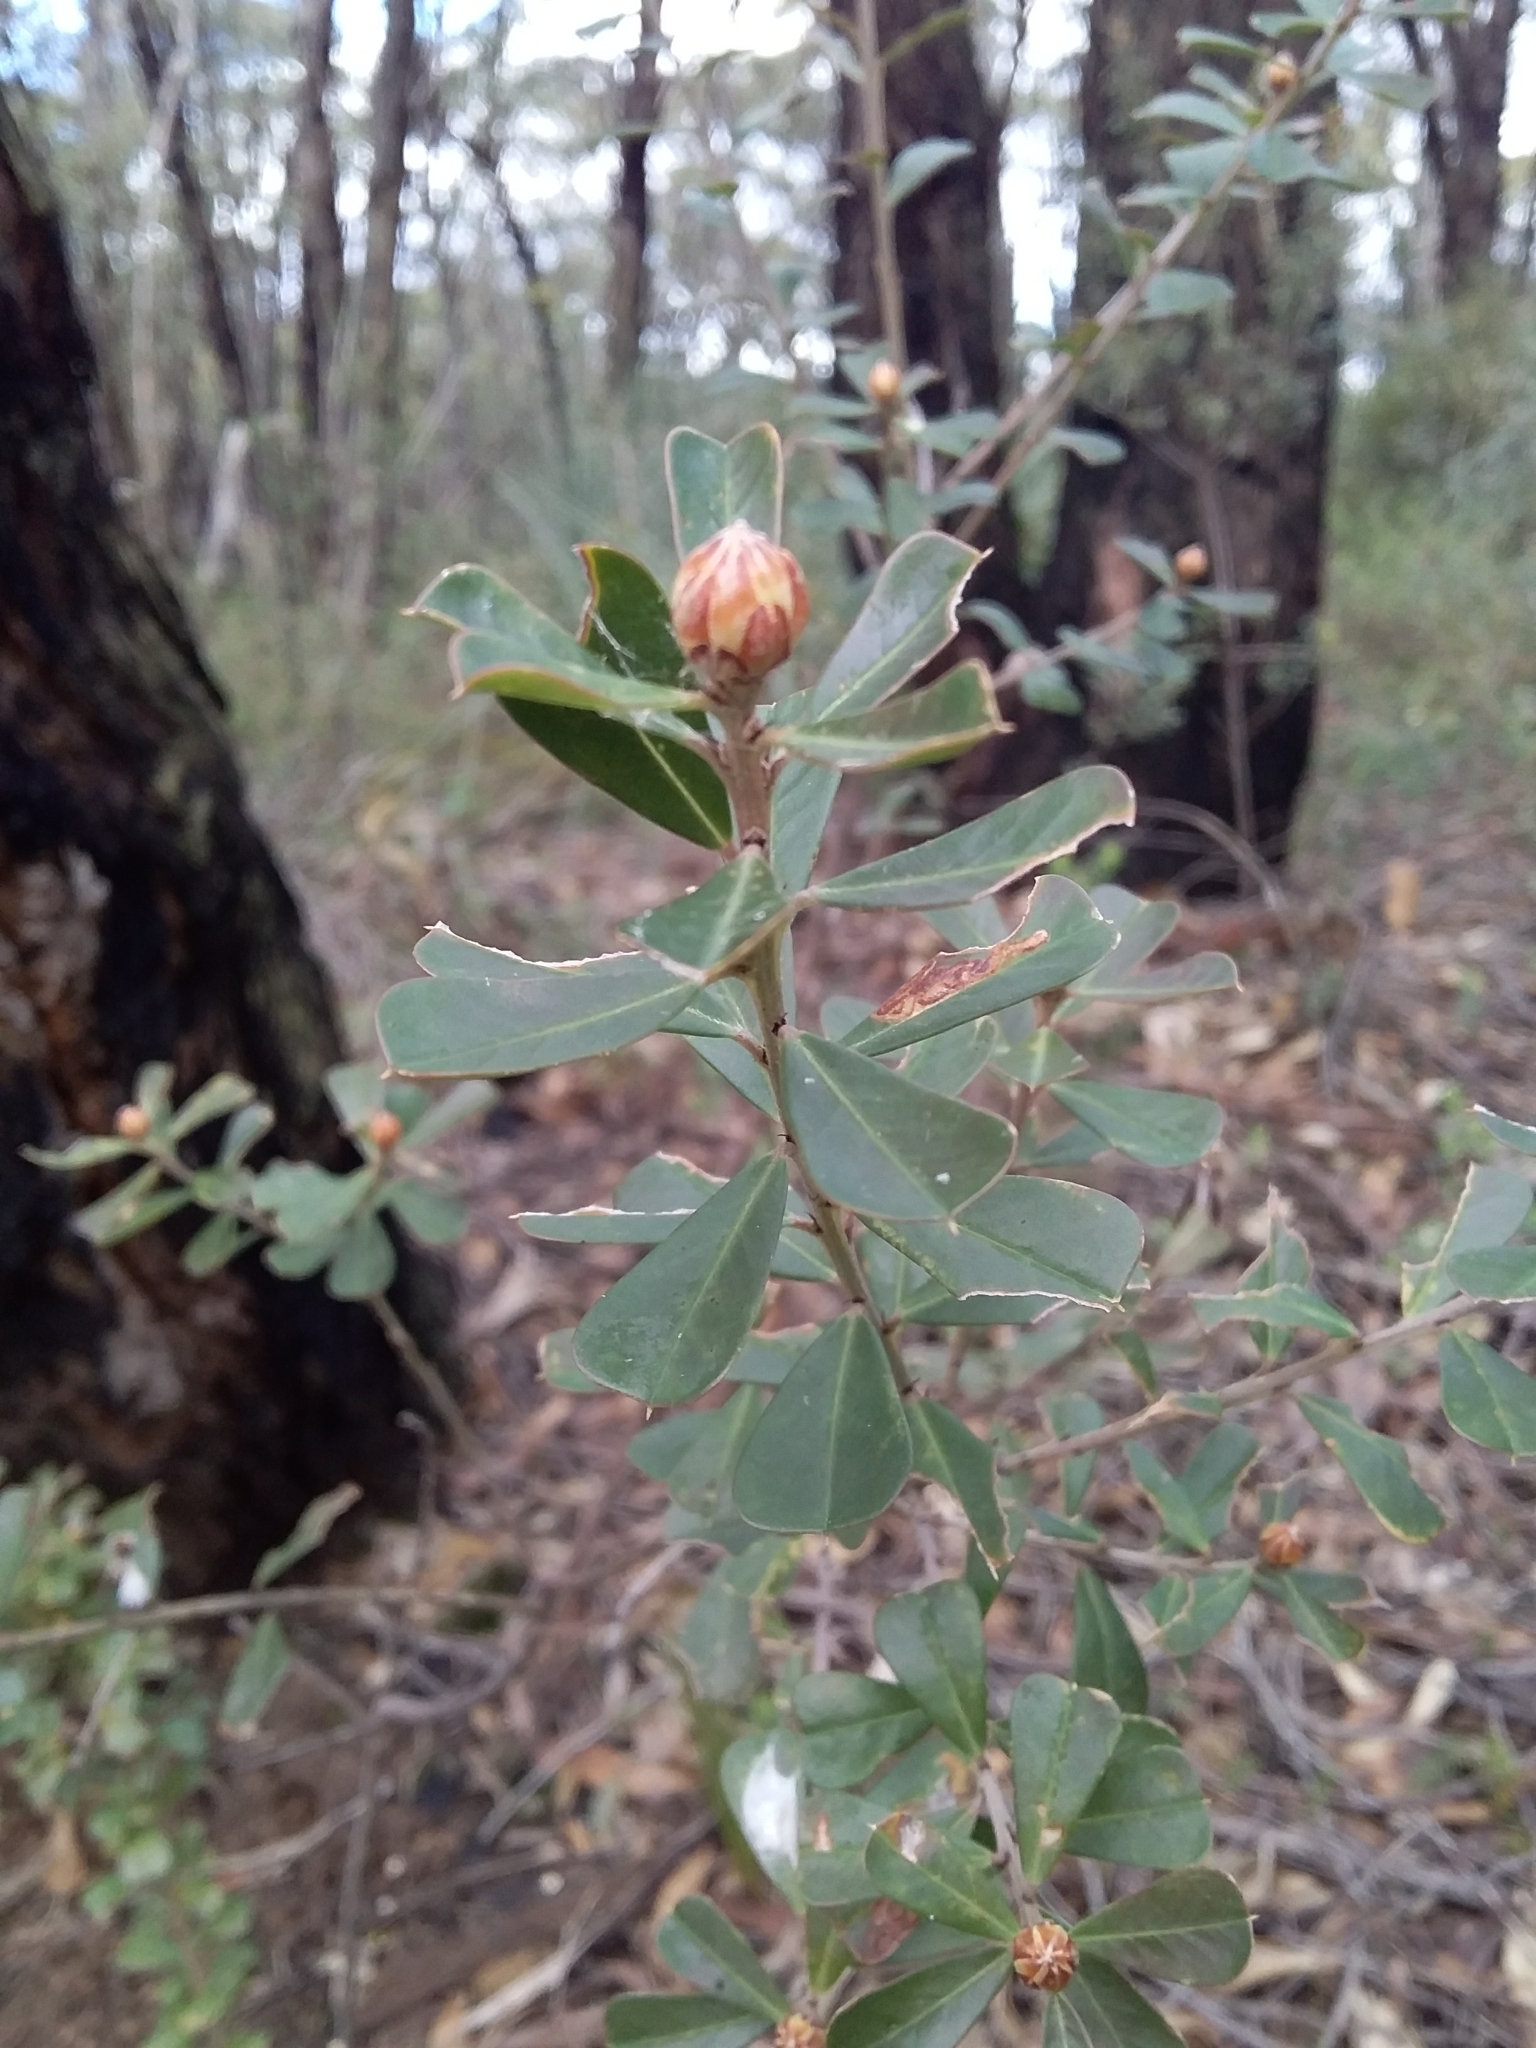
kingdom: Plantae
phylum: Tracheophyta
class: Magnoliopsida
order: Fabales
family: Fabaceae
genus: Pultenaea
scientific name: Pultenaea daphnoides
